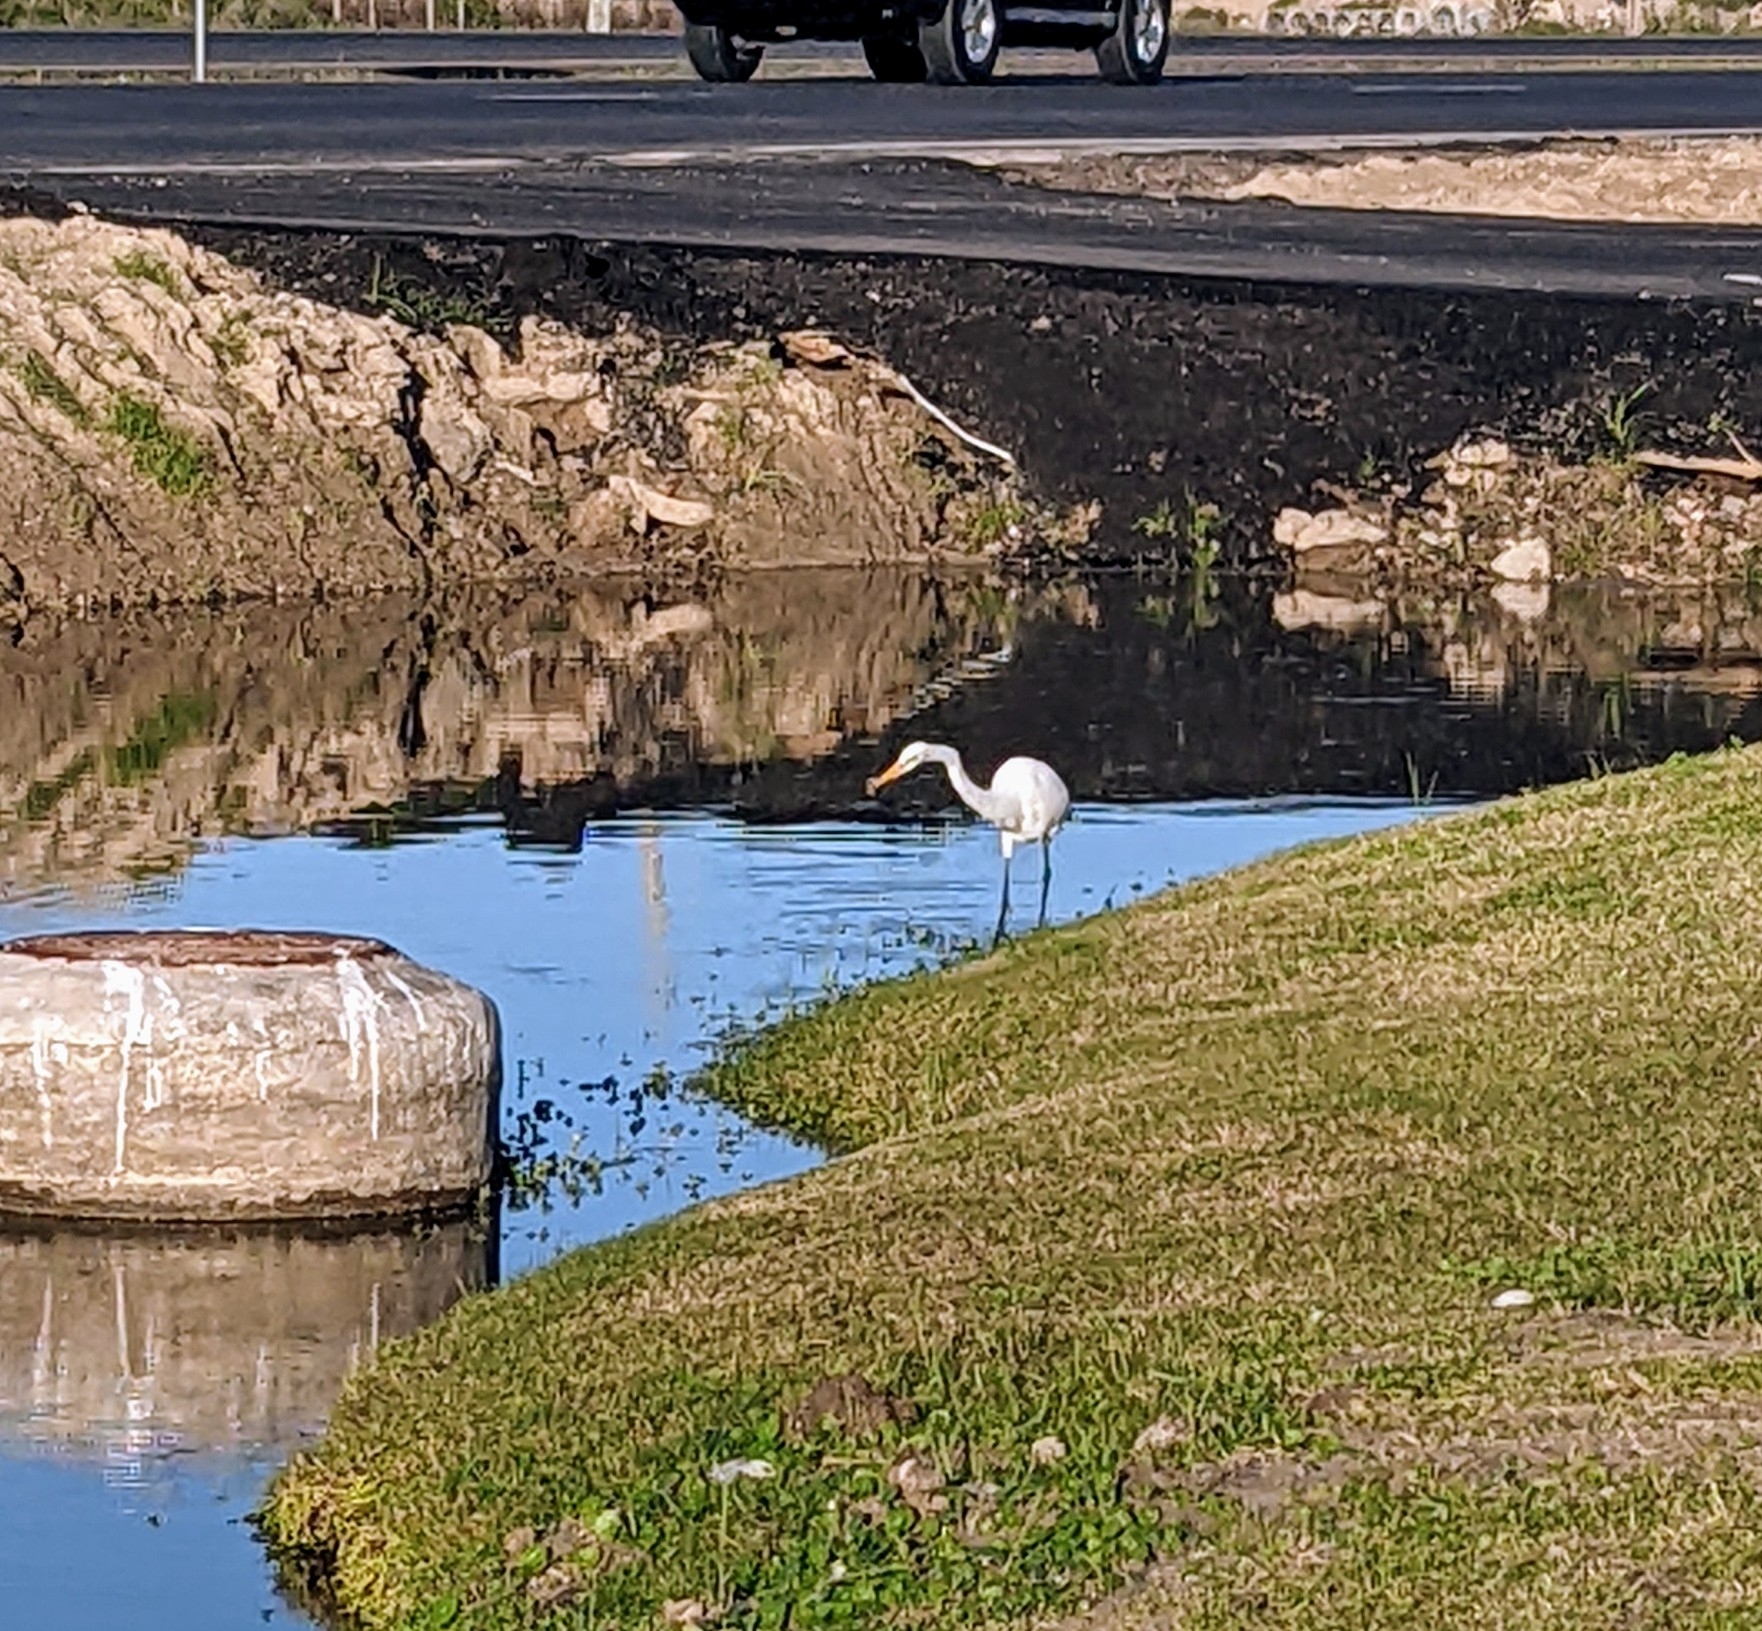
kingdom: Animalia
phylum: Chordata
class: Aves
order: Pelecaniformes
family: Ardeidae
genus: Ardea
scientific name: Ardea alba
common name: Great egret
